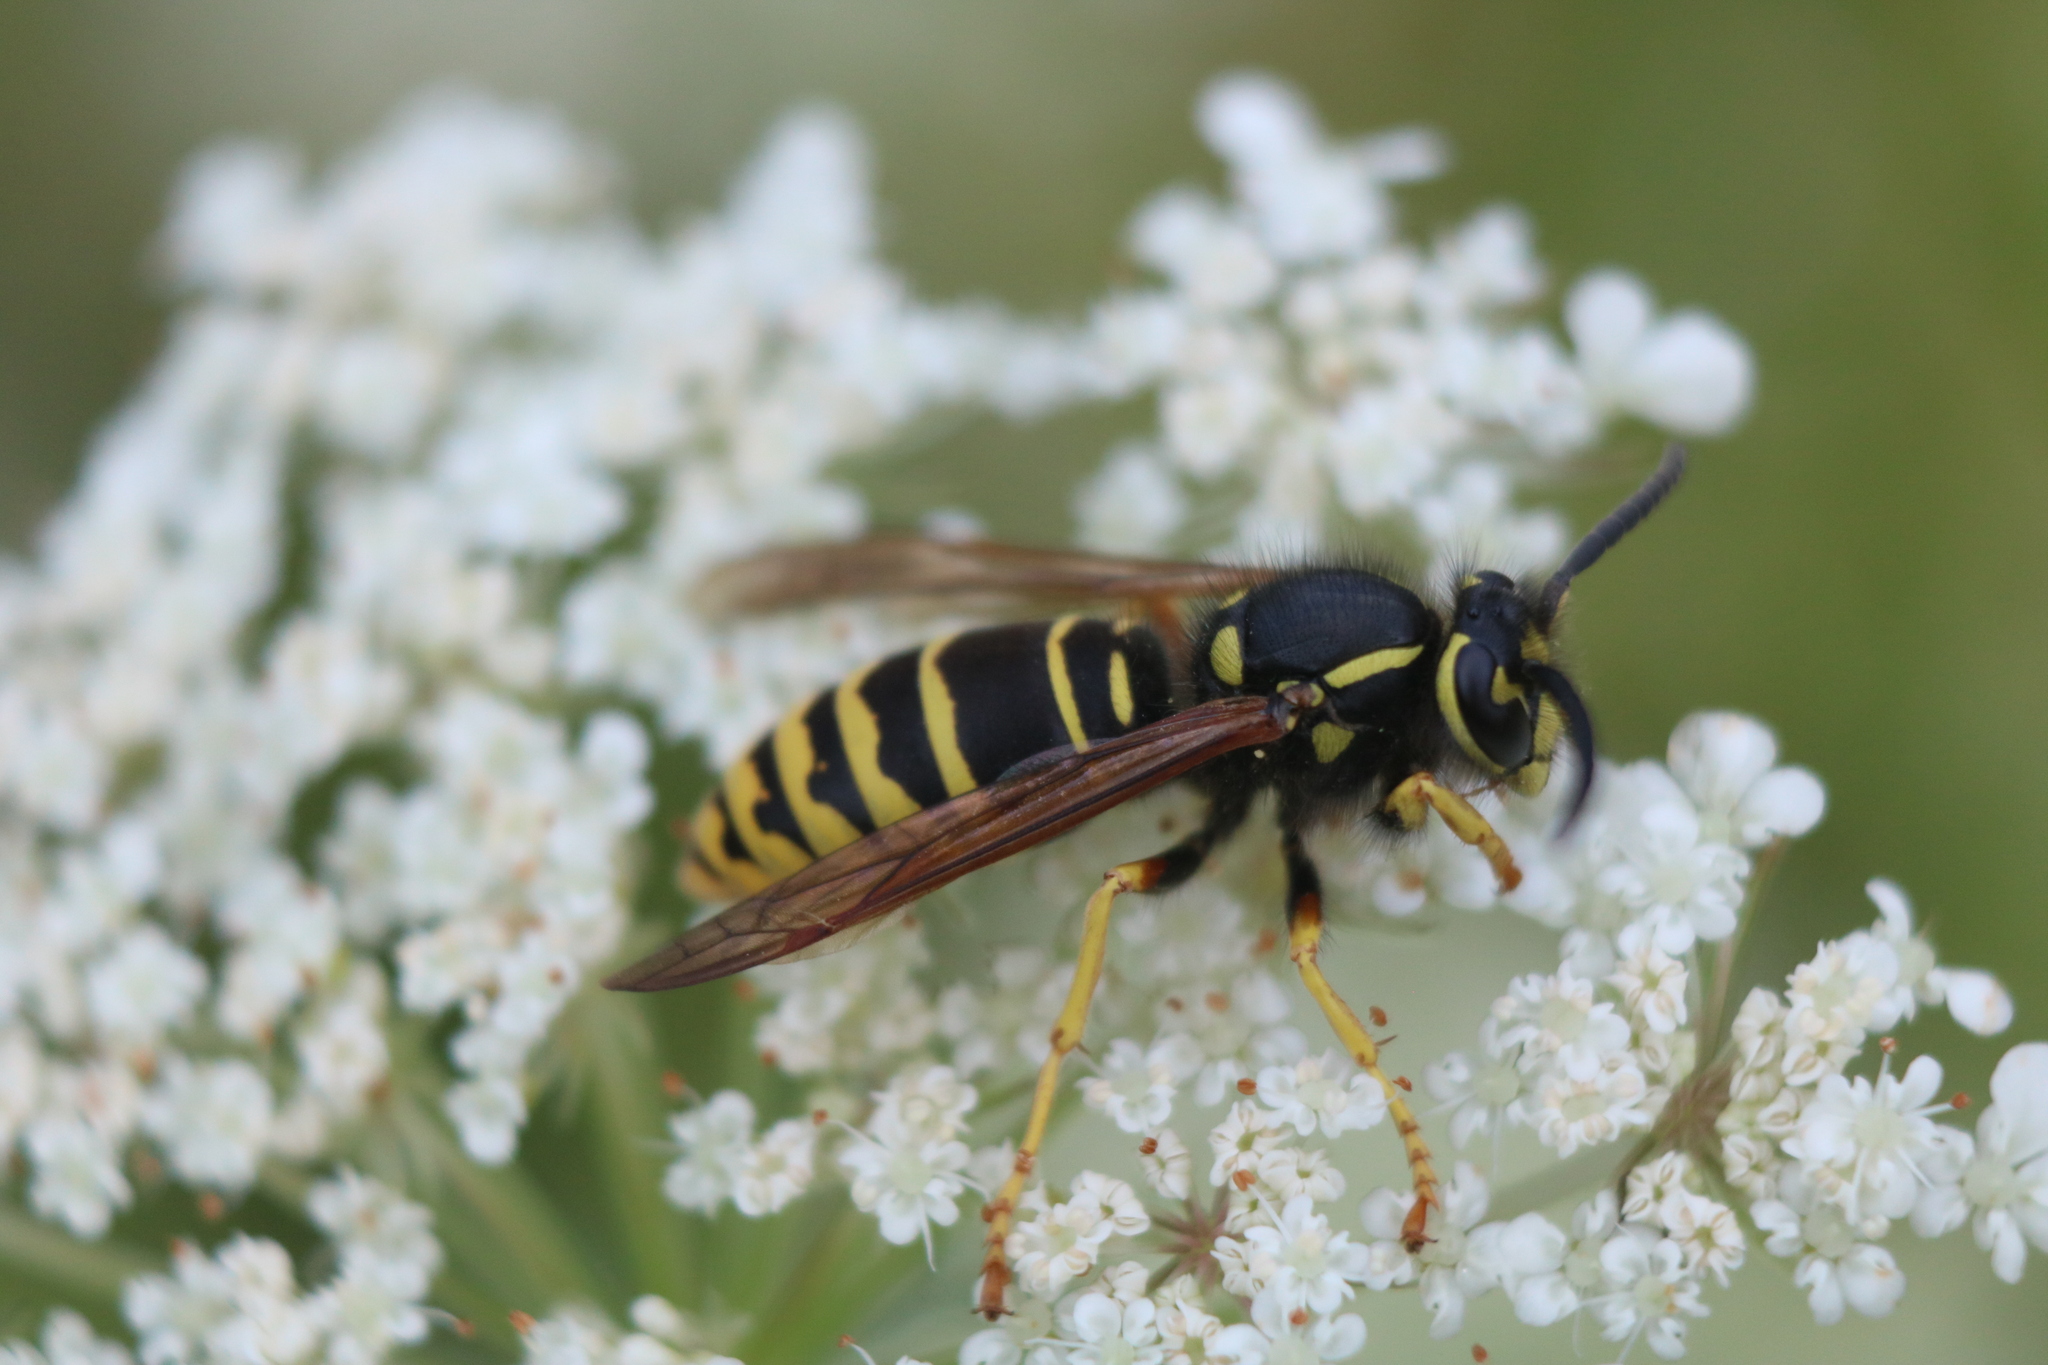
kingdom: Animalia
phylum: Arthropoda
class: Insecta
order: Hymenoptera
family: Vespidae
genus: Vespula
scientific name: Vespula vidua
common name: Widow yellowjacket
